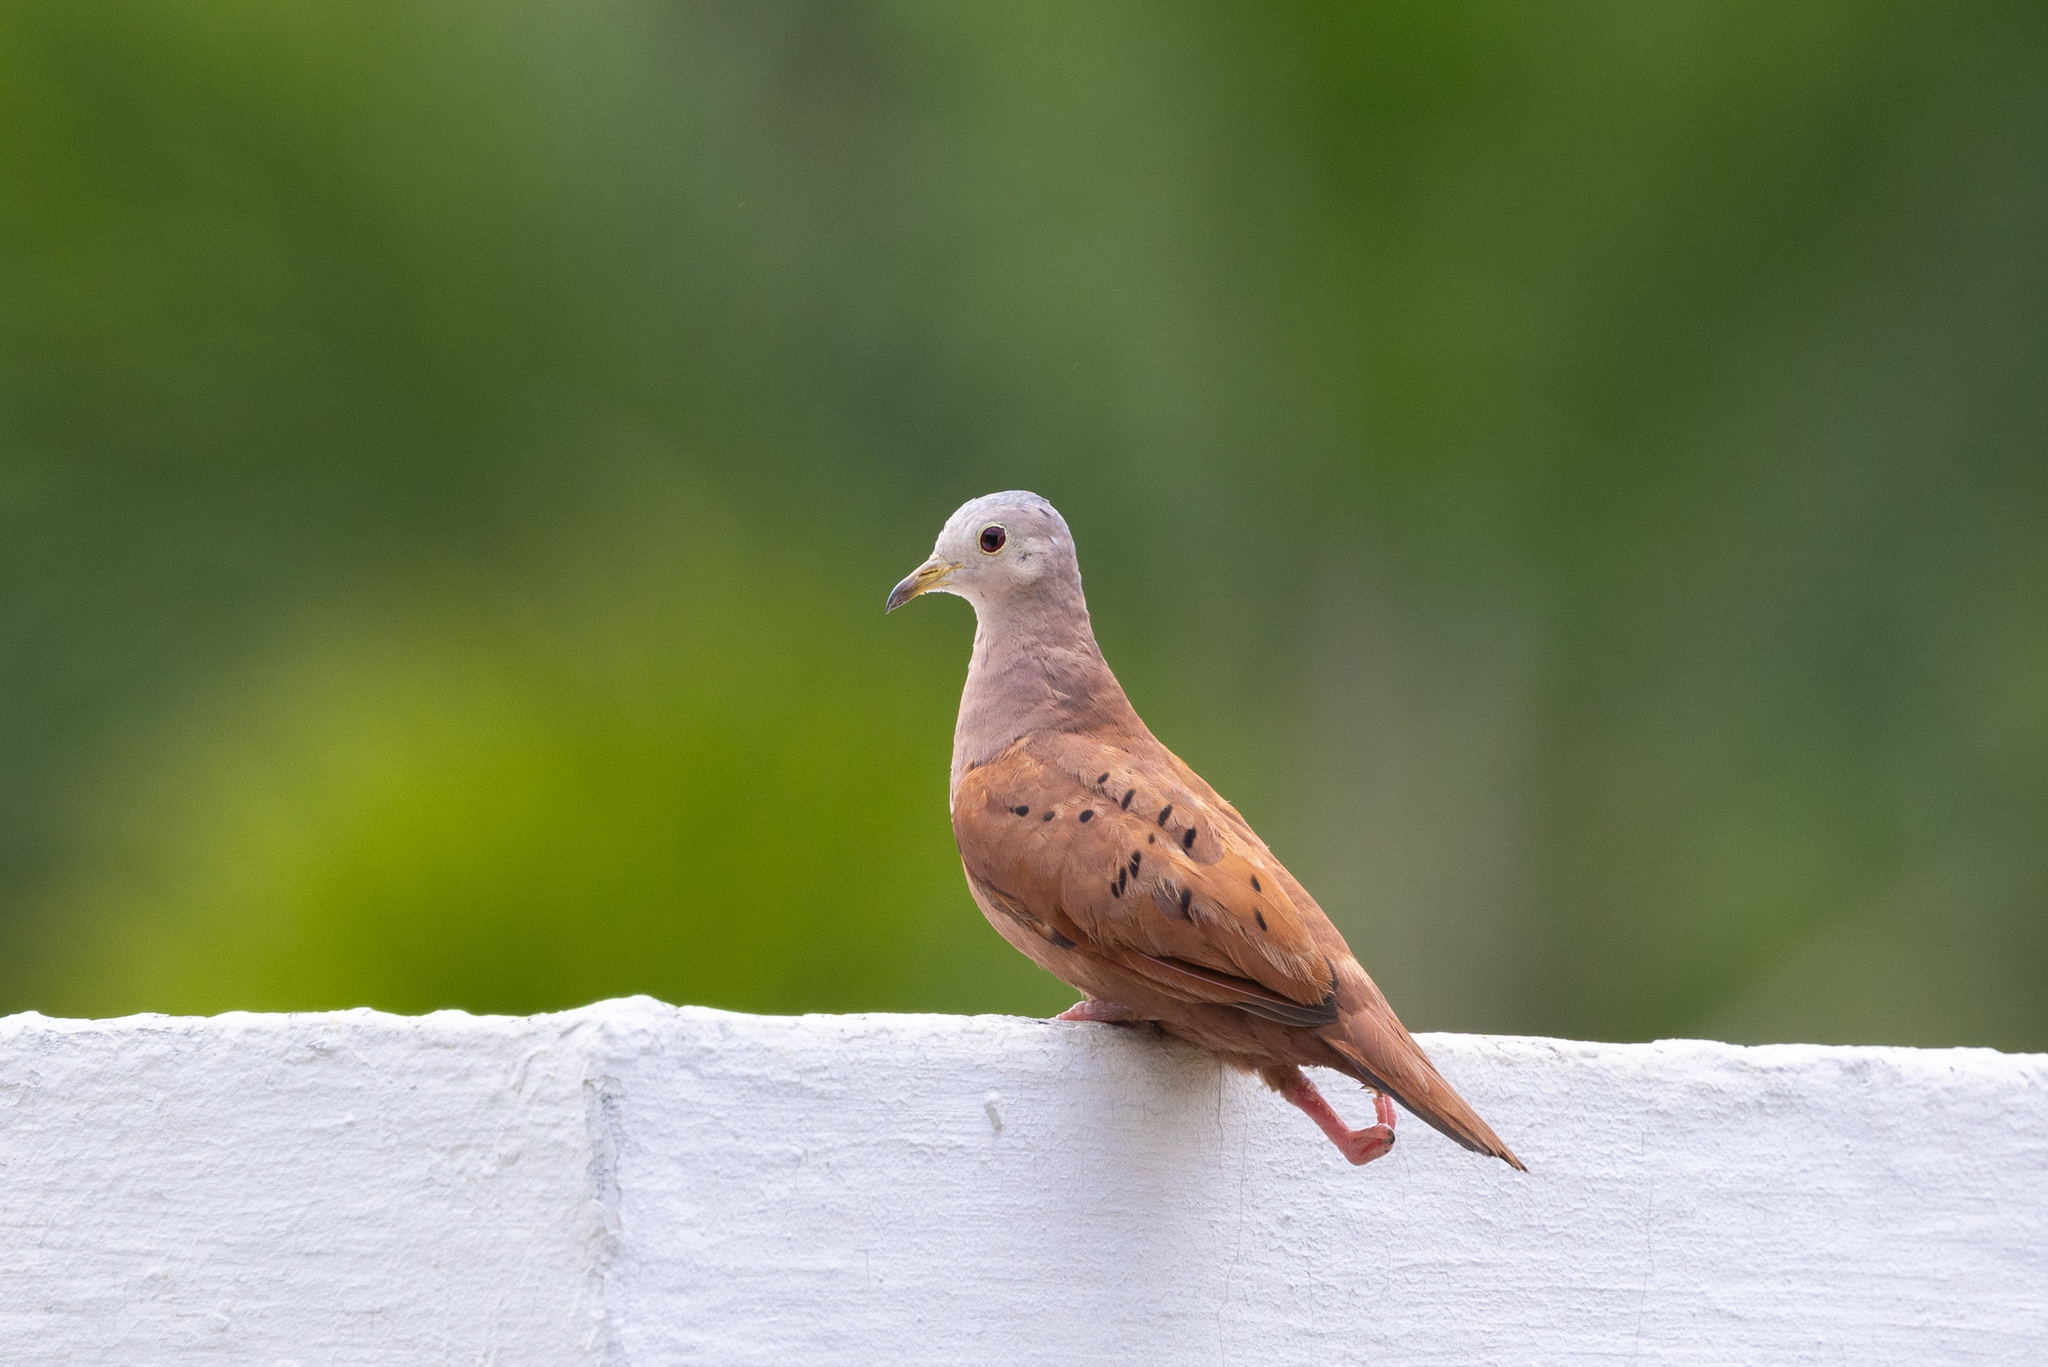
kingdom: Animalia
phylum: Chordata
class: Aves
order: Columbiformes
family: Columbidae
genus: Columbina
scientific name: Columbina talpacoti
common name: Ruddy ground dove
